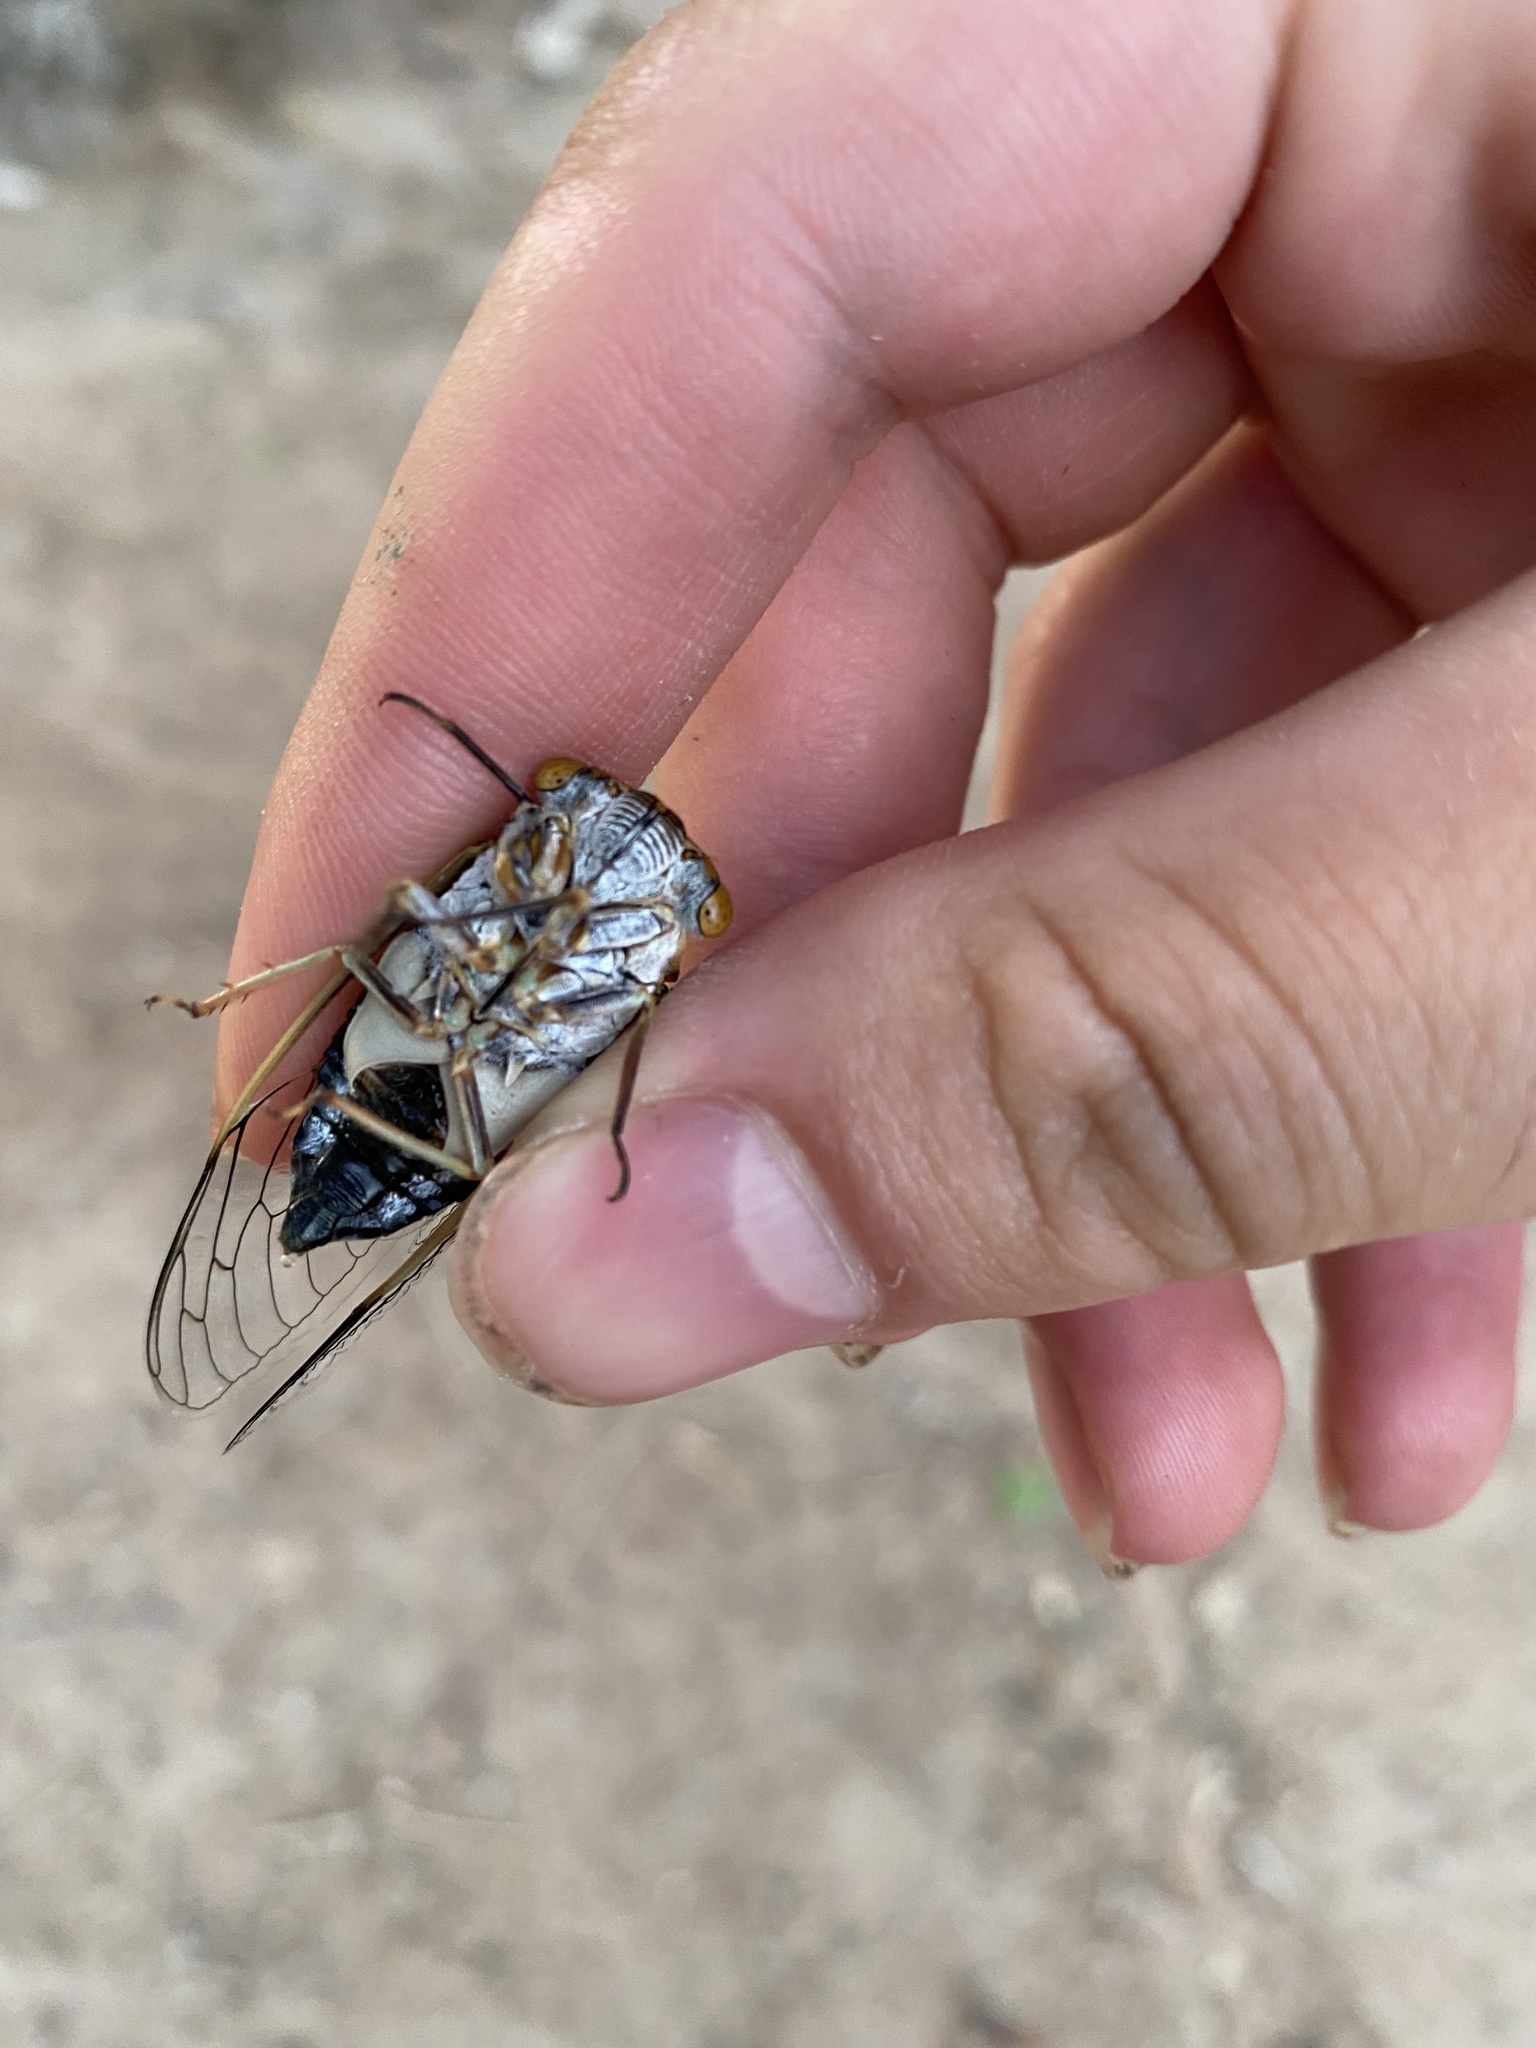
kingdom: Animalia
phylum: Arthropoda
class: Insecta
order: Hemiptera
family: Cicadidae
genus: Diceroprocta
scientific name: Diceroprocta semicincta
